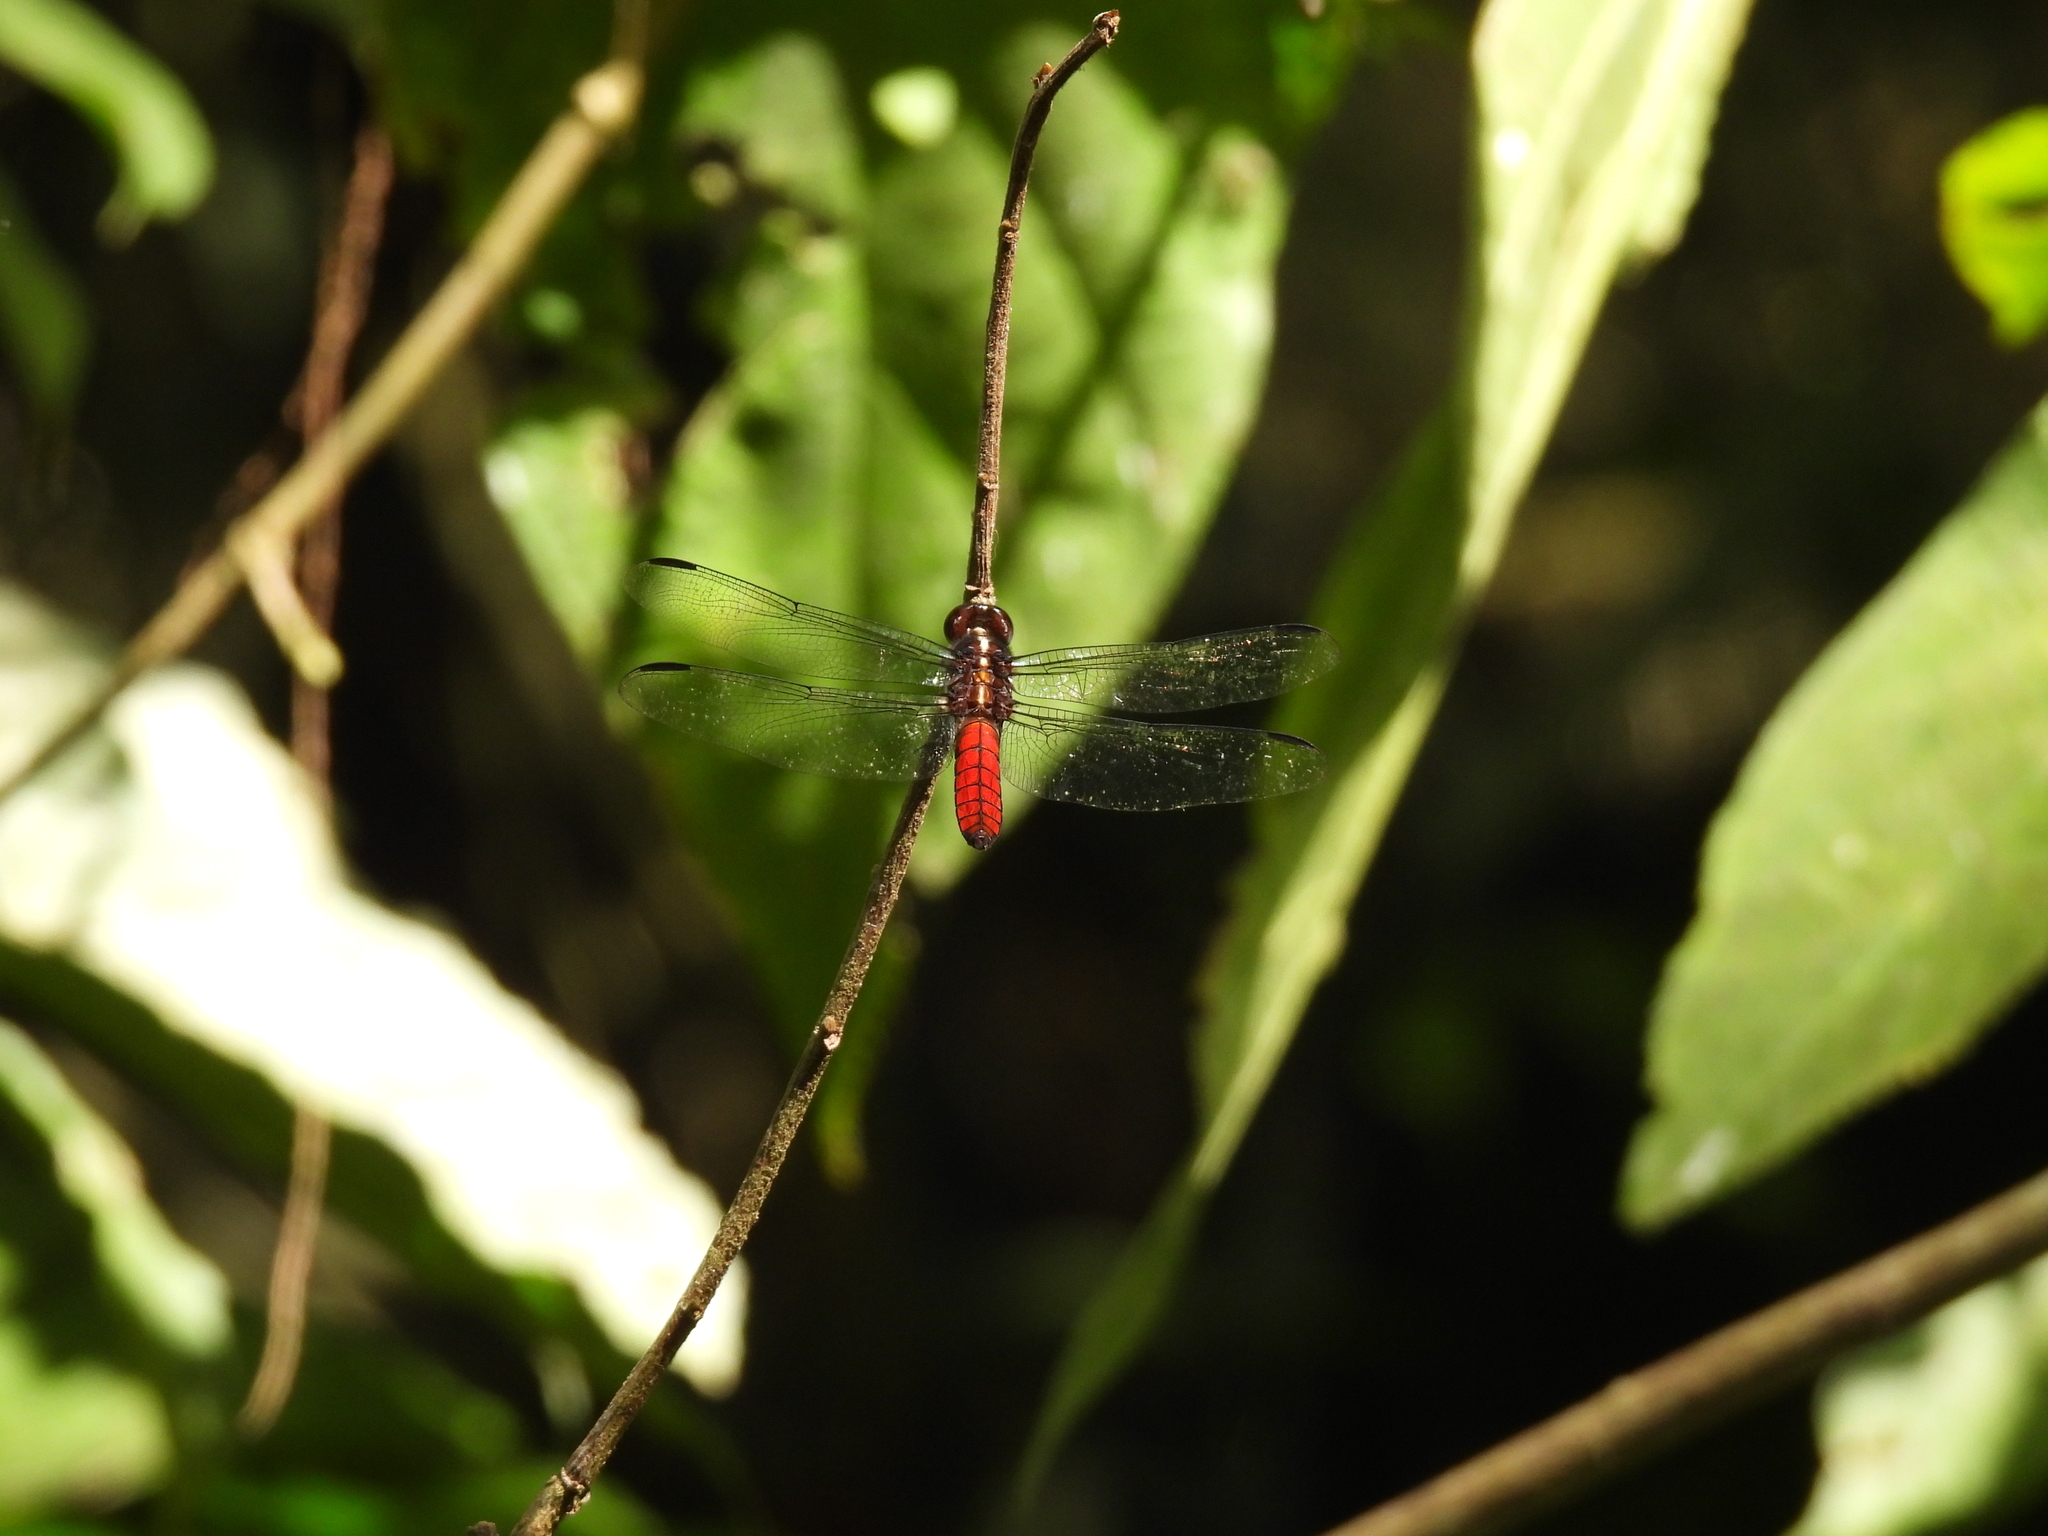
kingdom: Animalia
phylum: Arthropoda
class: Insecta
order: Odonata
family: Libellulidae
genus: Libellula
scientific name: Libellula herculea
